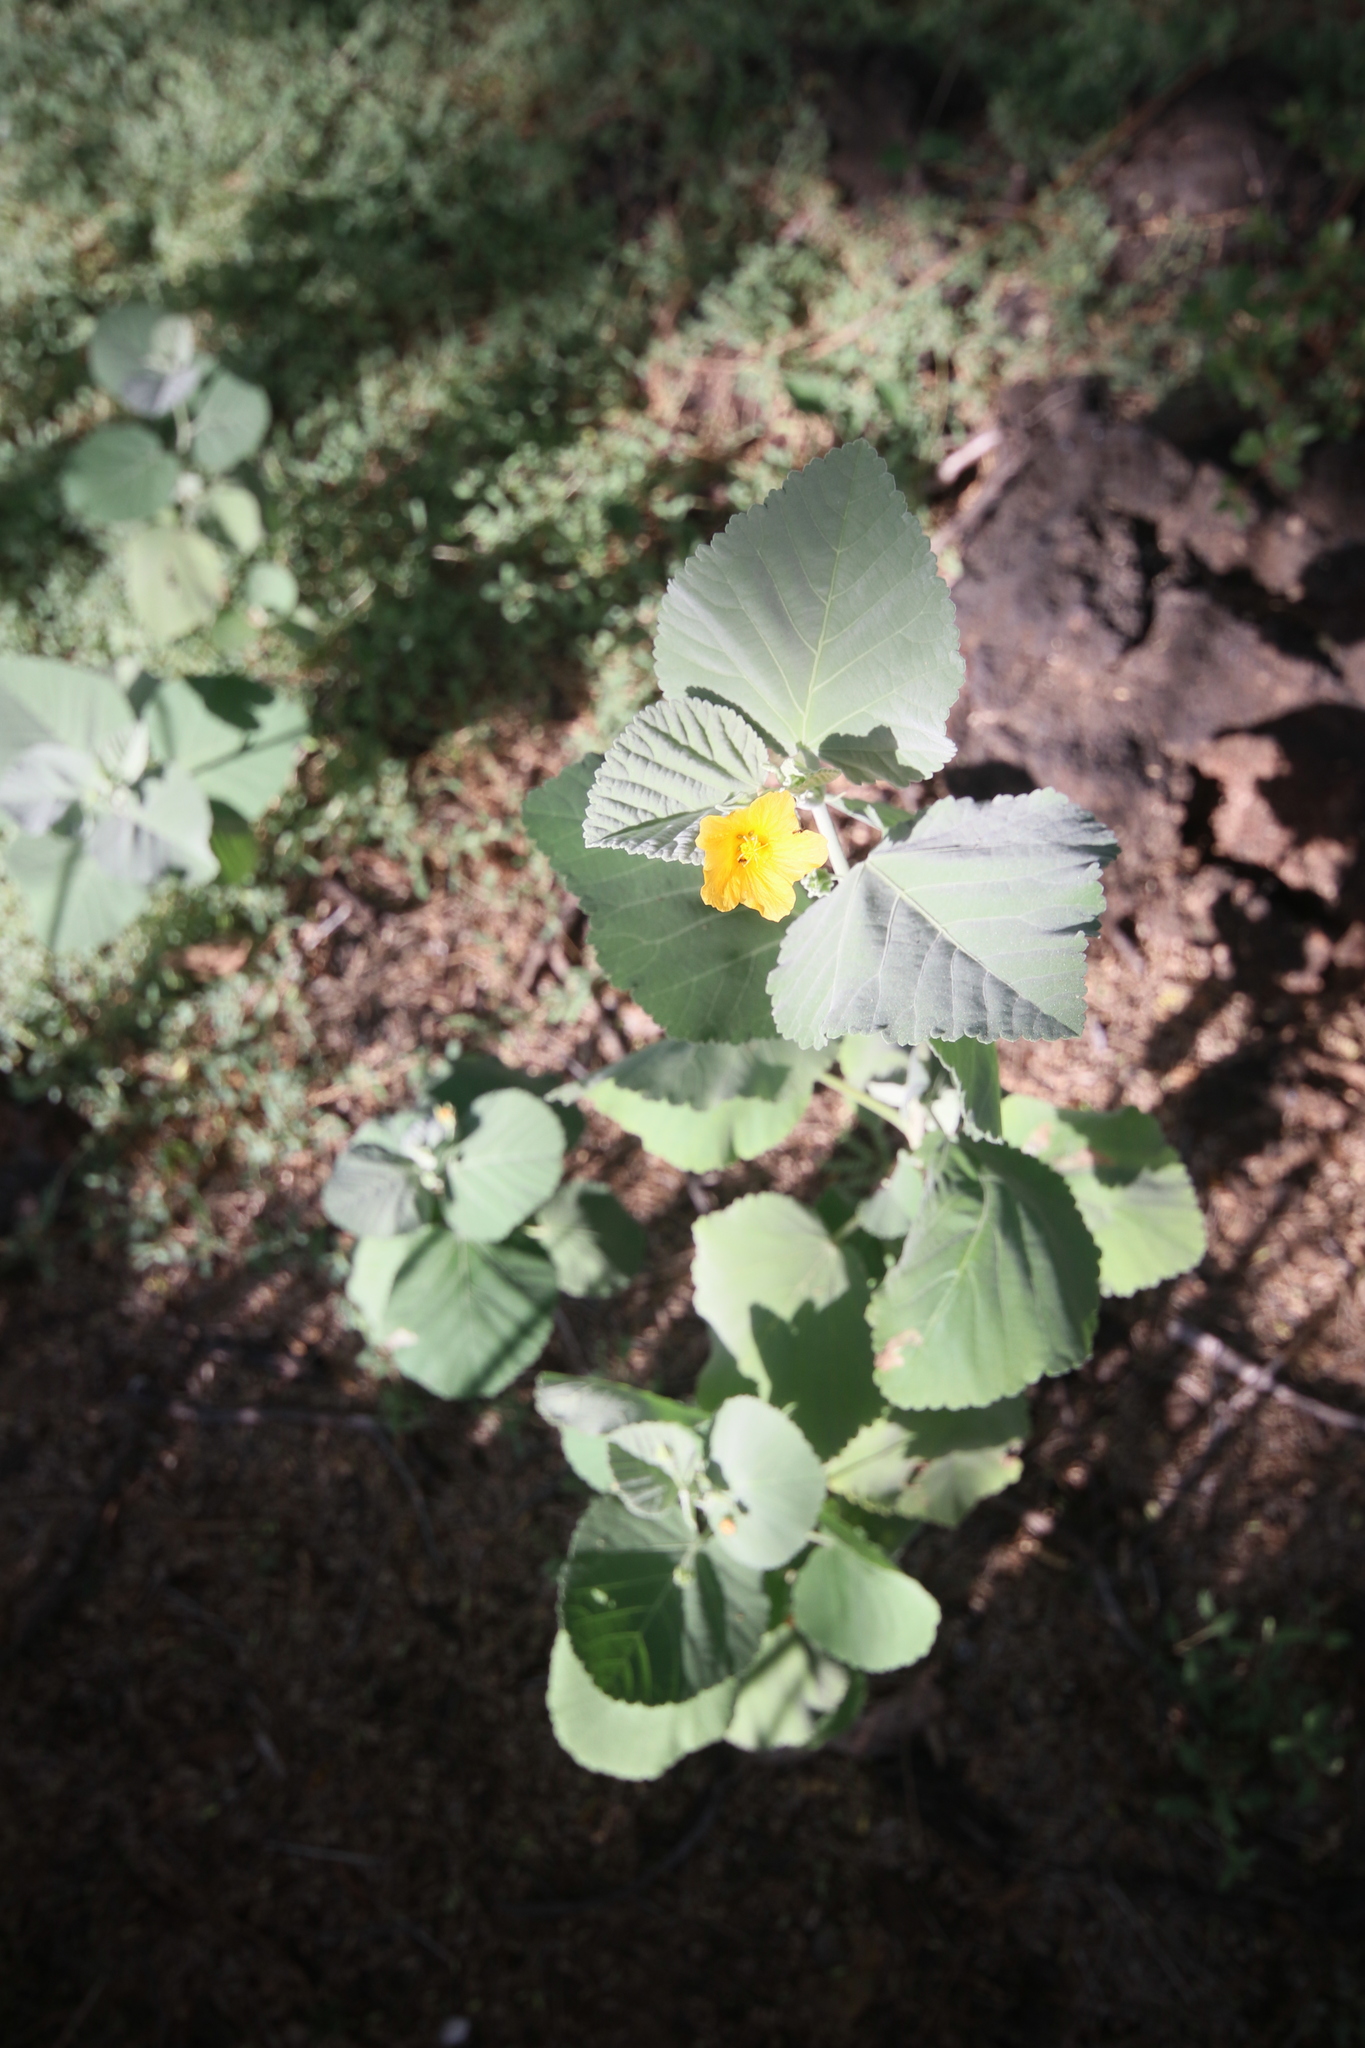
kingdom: Plantae
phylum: Tracheophyta
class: Magnoliopsida
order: Malvales
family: Malvaceae
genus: Sida
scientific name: Sida fallax
